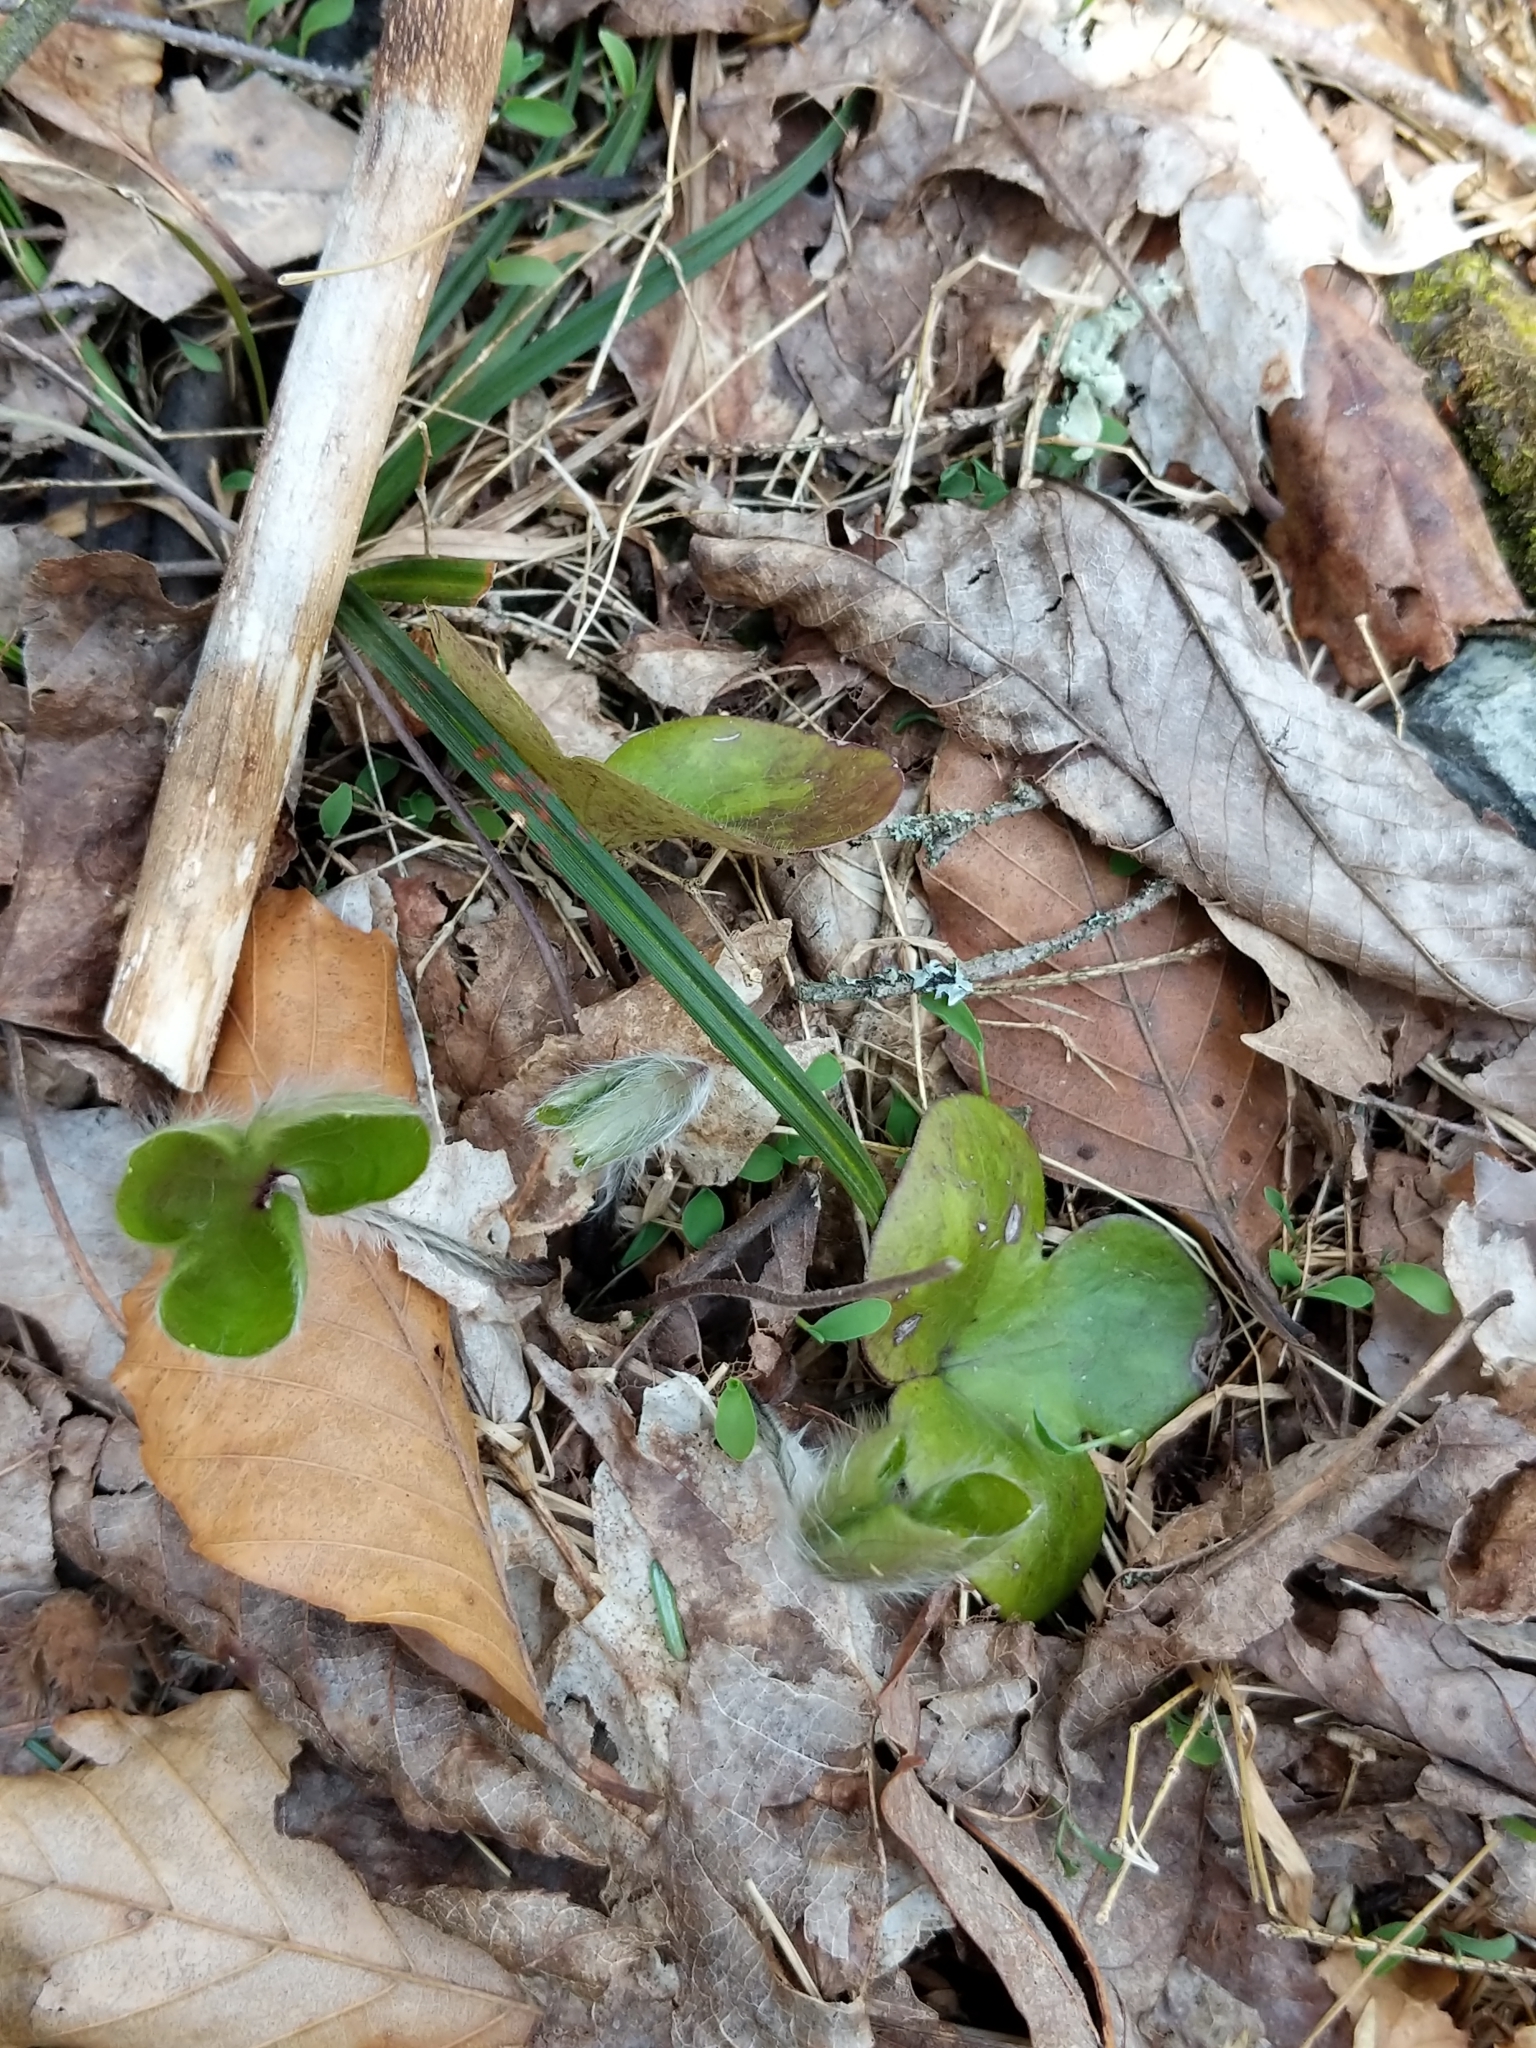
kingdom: Plantae
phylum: Tracheophyta
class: Magnoliopsida
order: Ranunculales
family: Ranunculaceae
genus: Hepatica
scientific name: Hepatica americana
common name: American hepatica
